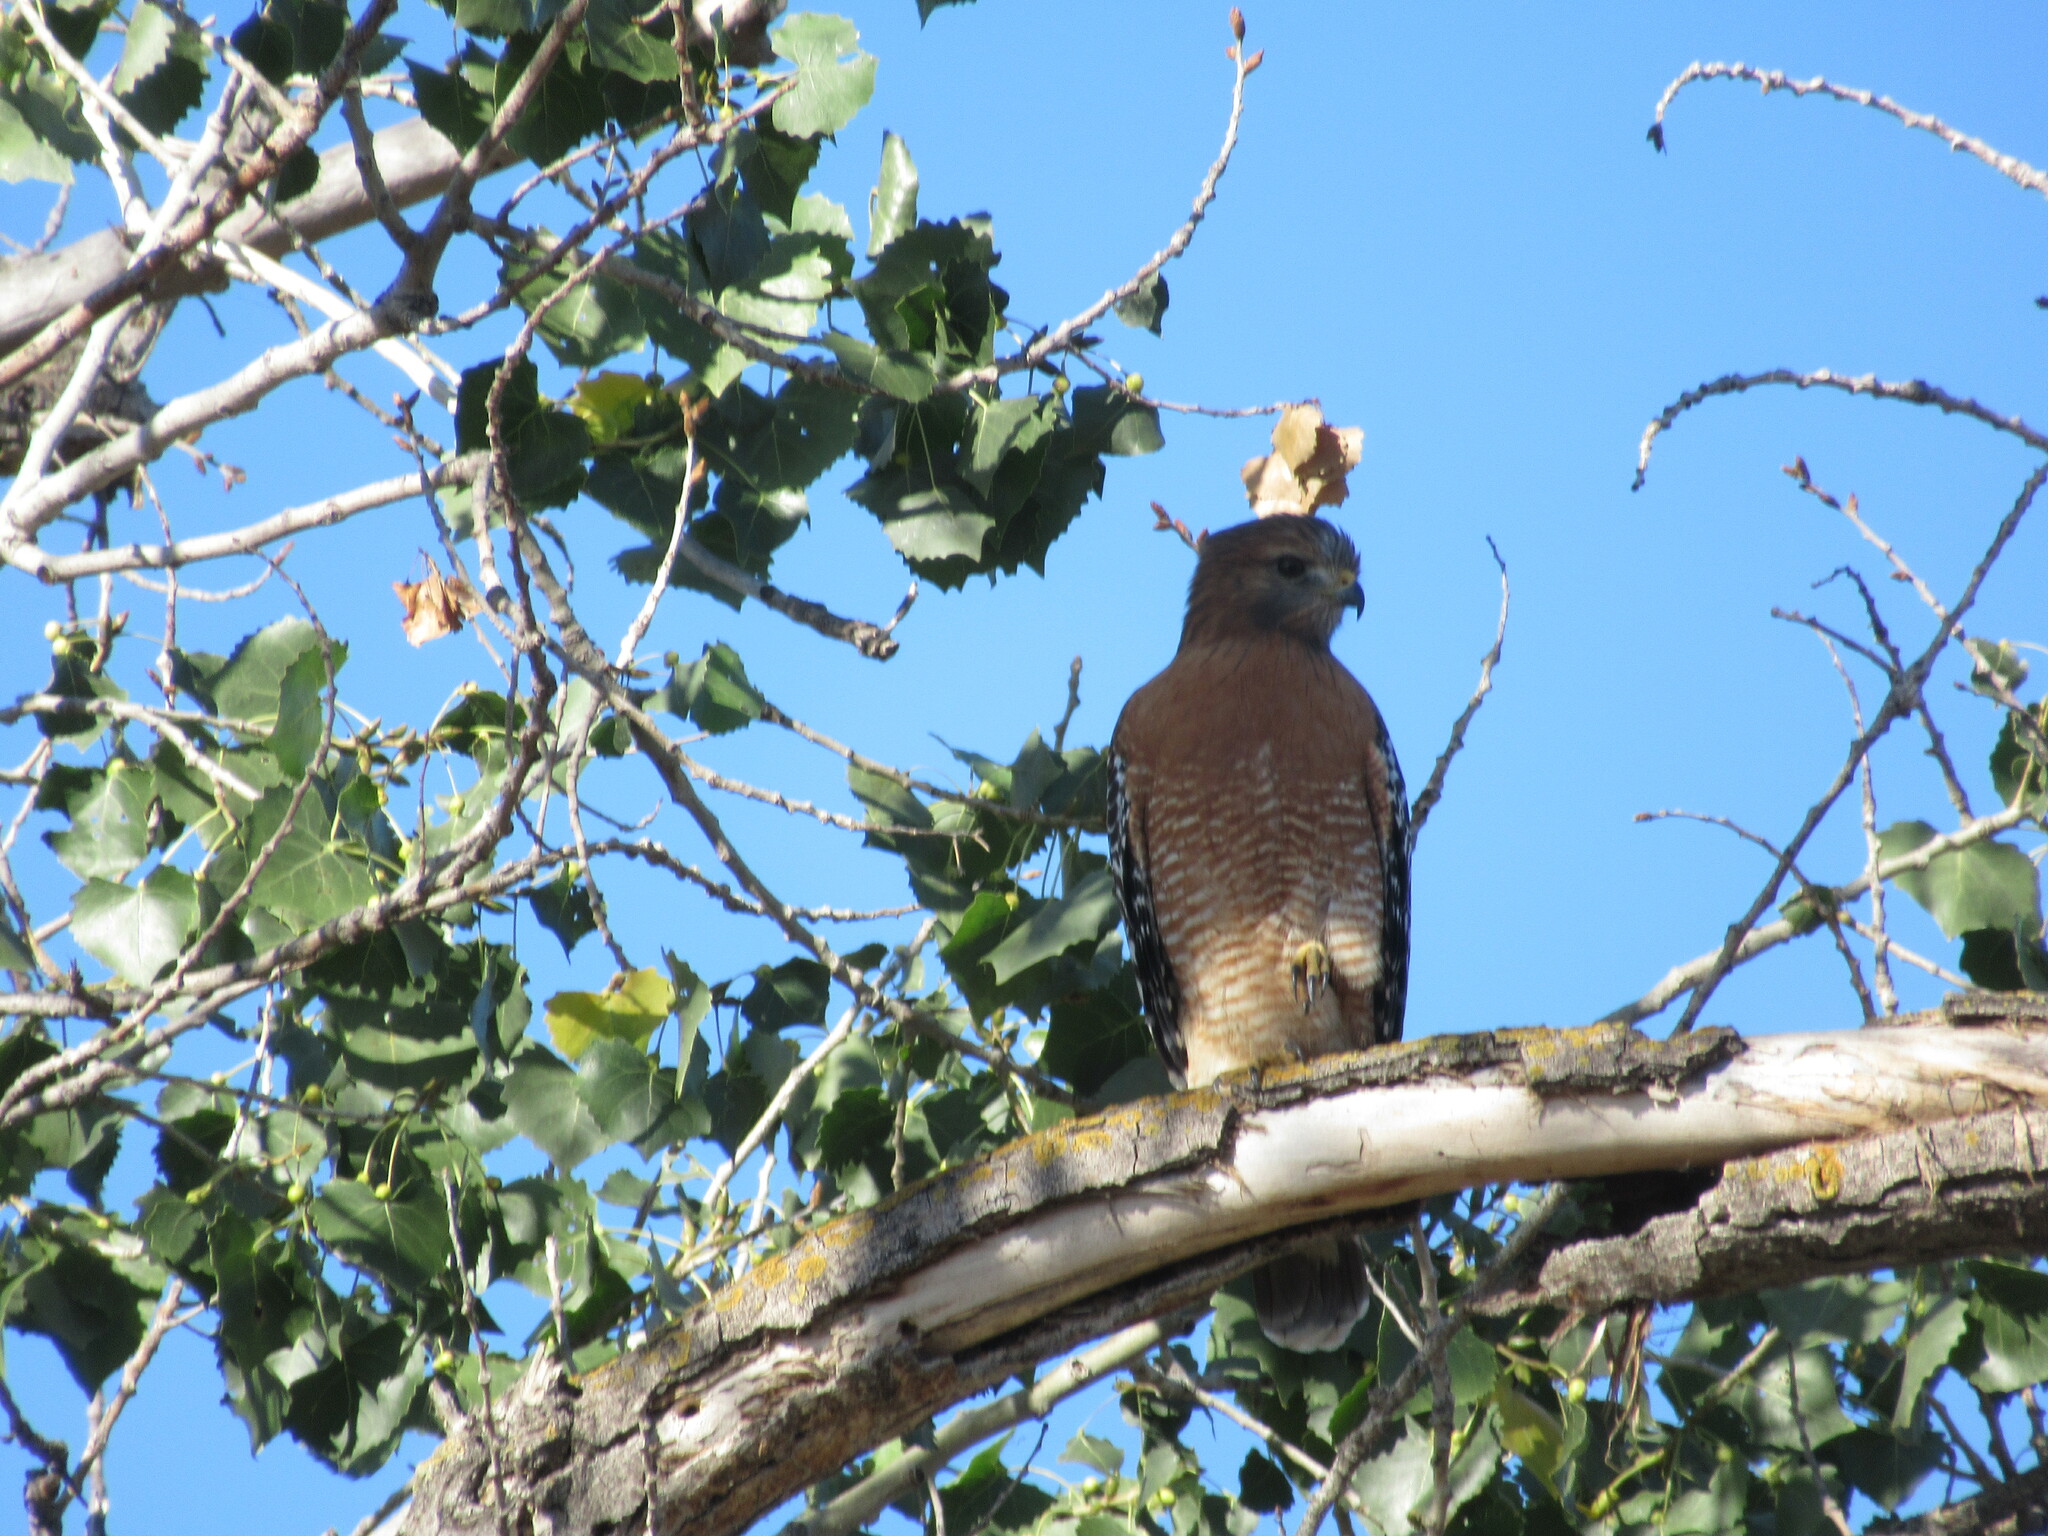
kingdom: Animalia
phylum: Chordata
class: Aves
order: Accipitriformes
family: Accipitridae
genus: Buteo
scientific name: Buteo lineatus
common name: Red-shouldered hawk
